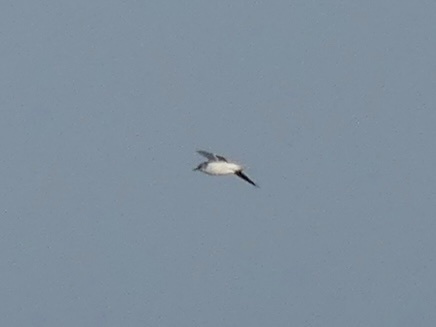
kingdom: Animalia
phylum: Chordata
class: Aves
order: Charadriiformes
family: Laridae
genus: Hydrocoloeus
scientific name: Hydrocoloeus minutus
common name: Little gull
